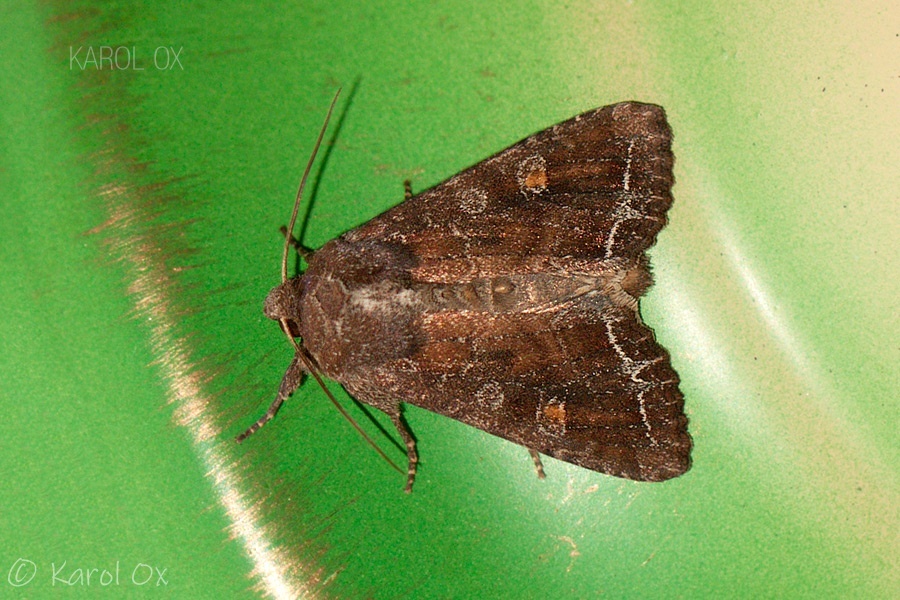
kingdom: Animalia
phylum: Arthropoda
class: Insecta
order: Lepidoptera
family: Noctuidae
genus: Lacanobia
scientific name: Lacanobia oleracea
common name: Bright-line brown-eye
